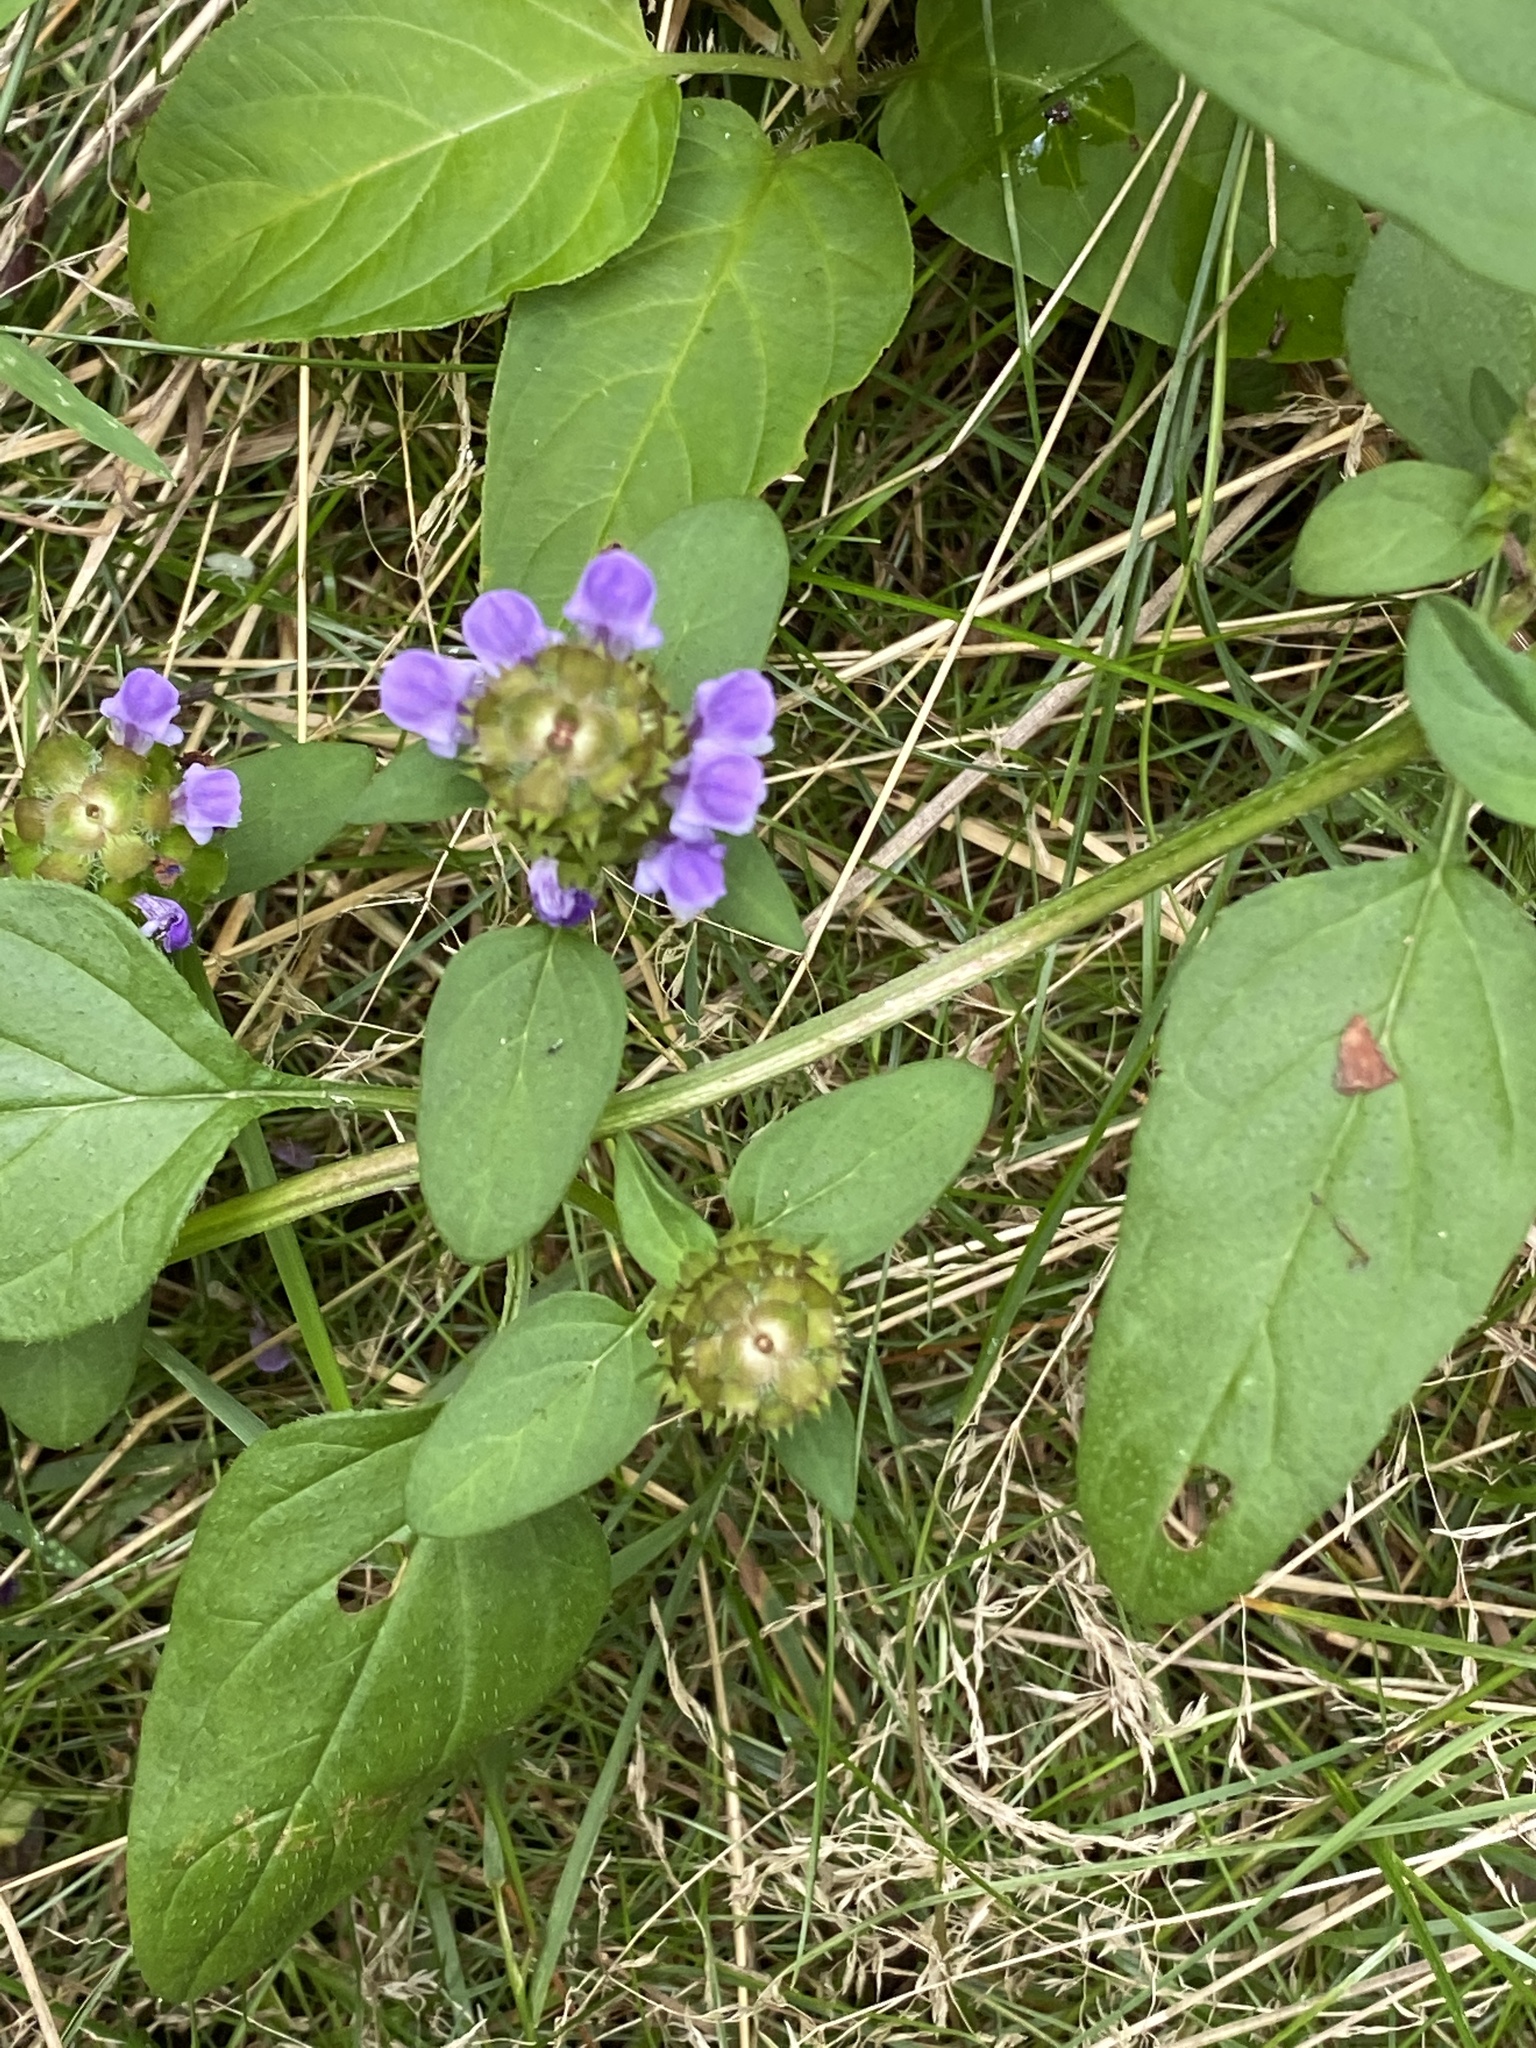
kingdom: Plantae
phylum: Tracheophyta
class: Magnoliopsida
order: Lamiales
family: Lamiaceae
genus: Prunella
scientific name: Prunella vulgaris
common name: Heal-all
